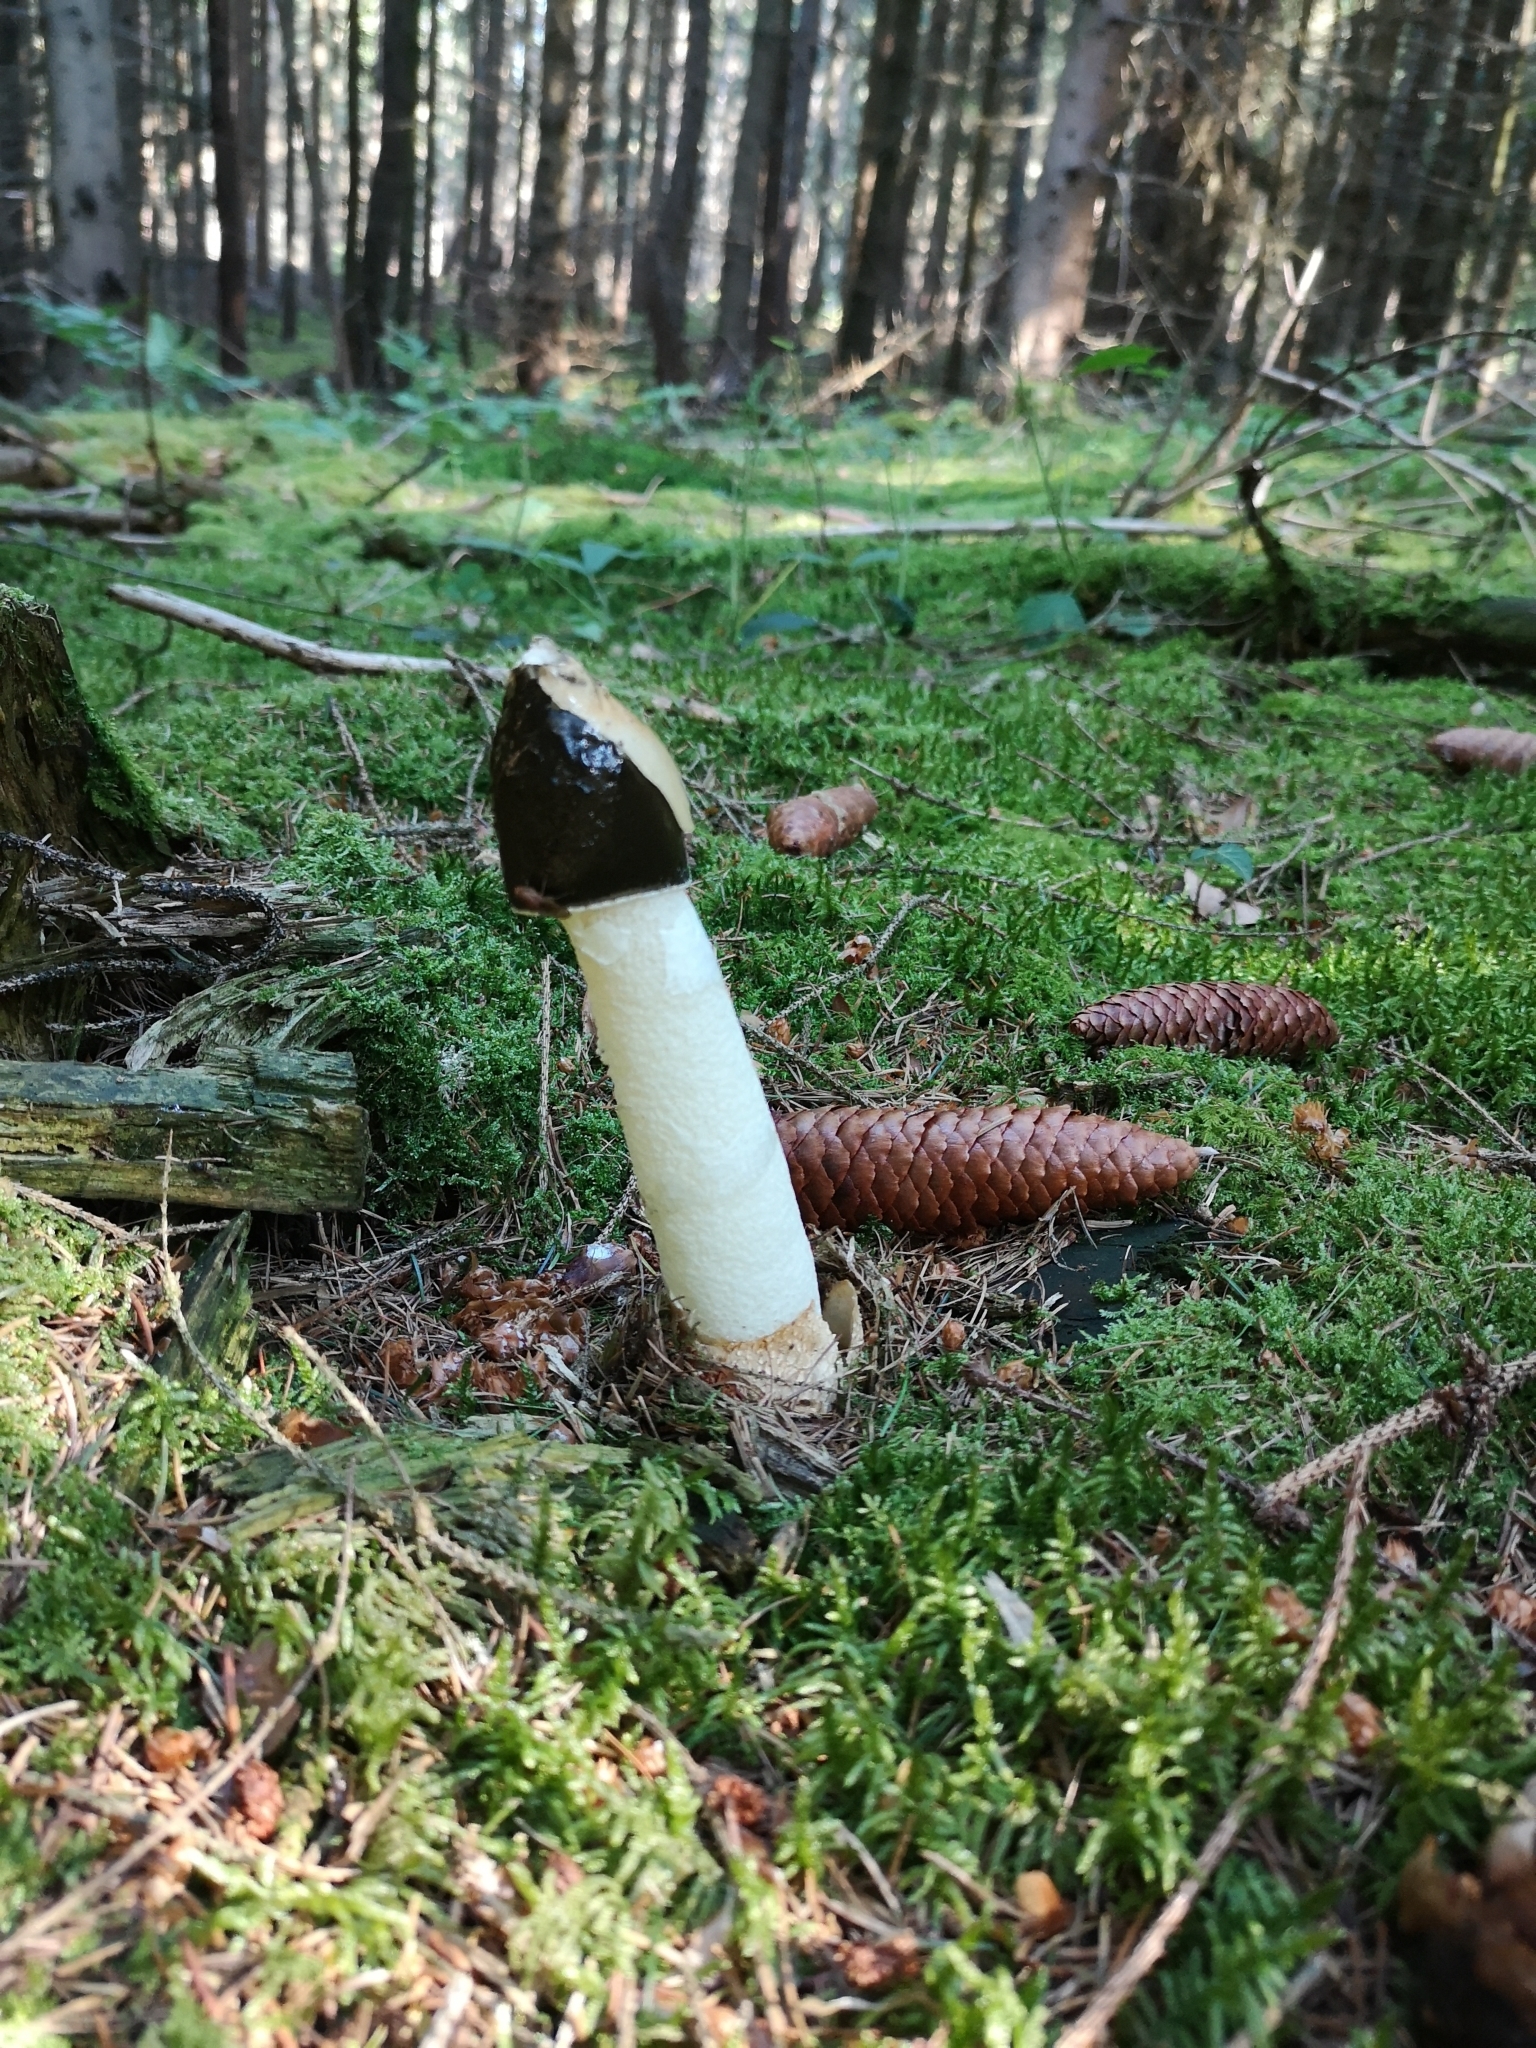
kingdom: Fungi
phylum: Basidiomycota
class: Agaricomycetes
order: Phallales
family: Phallaceae
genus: Phallus
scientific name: Phallus impudicus
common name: Common stinkhorn
